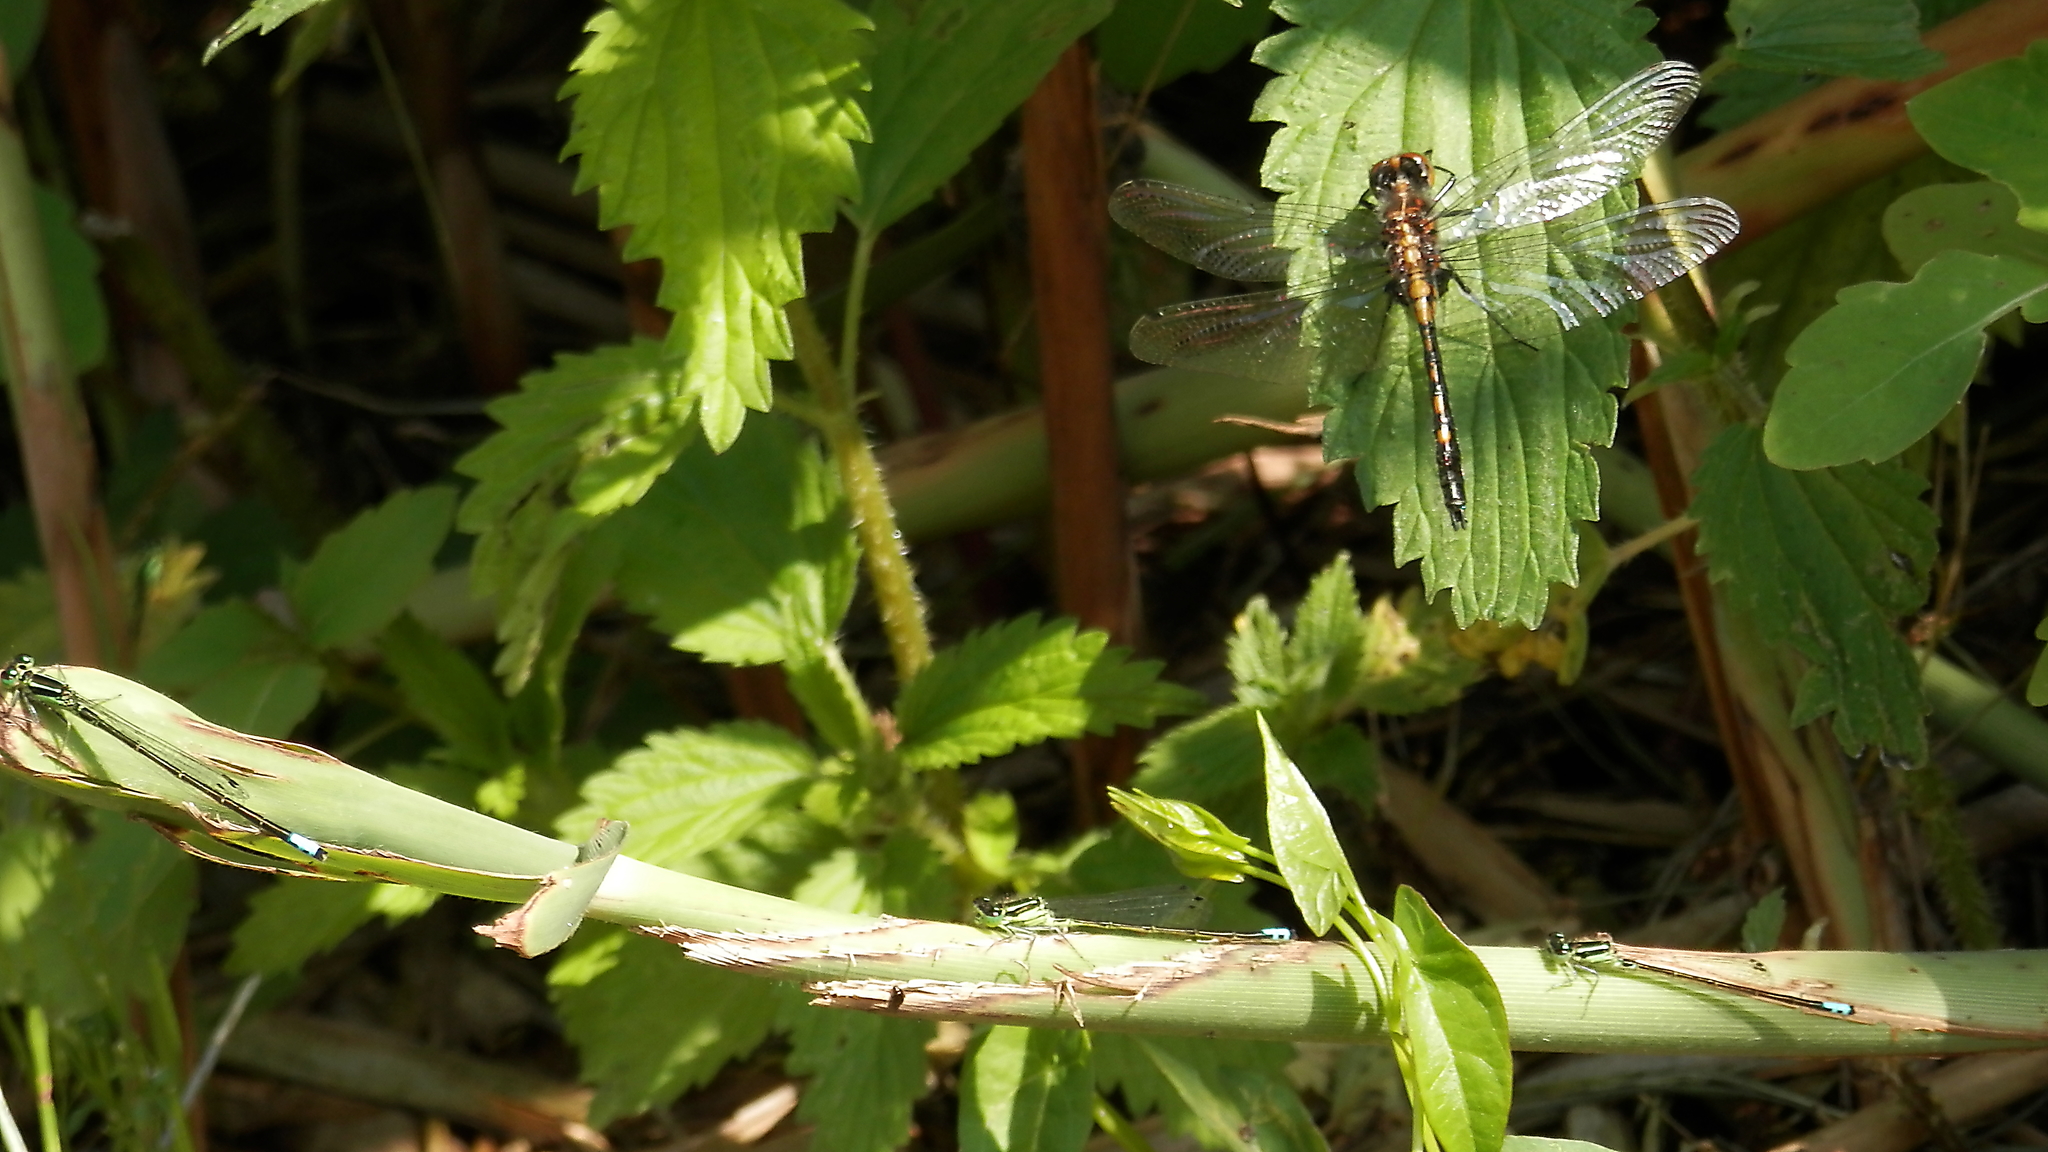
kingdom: Animalia
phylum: Arthropoda
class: Insecta
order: Odonata
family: Coenagrionidae
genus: Ischnura
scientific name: Ischnura verticalis
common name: Eastern forktail
